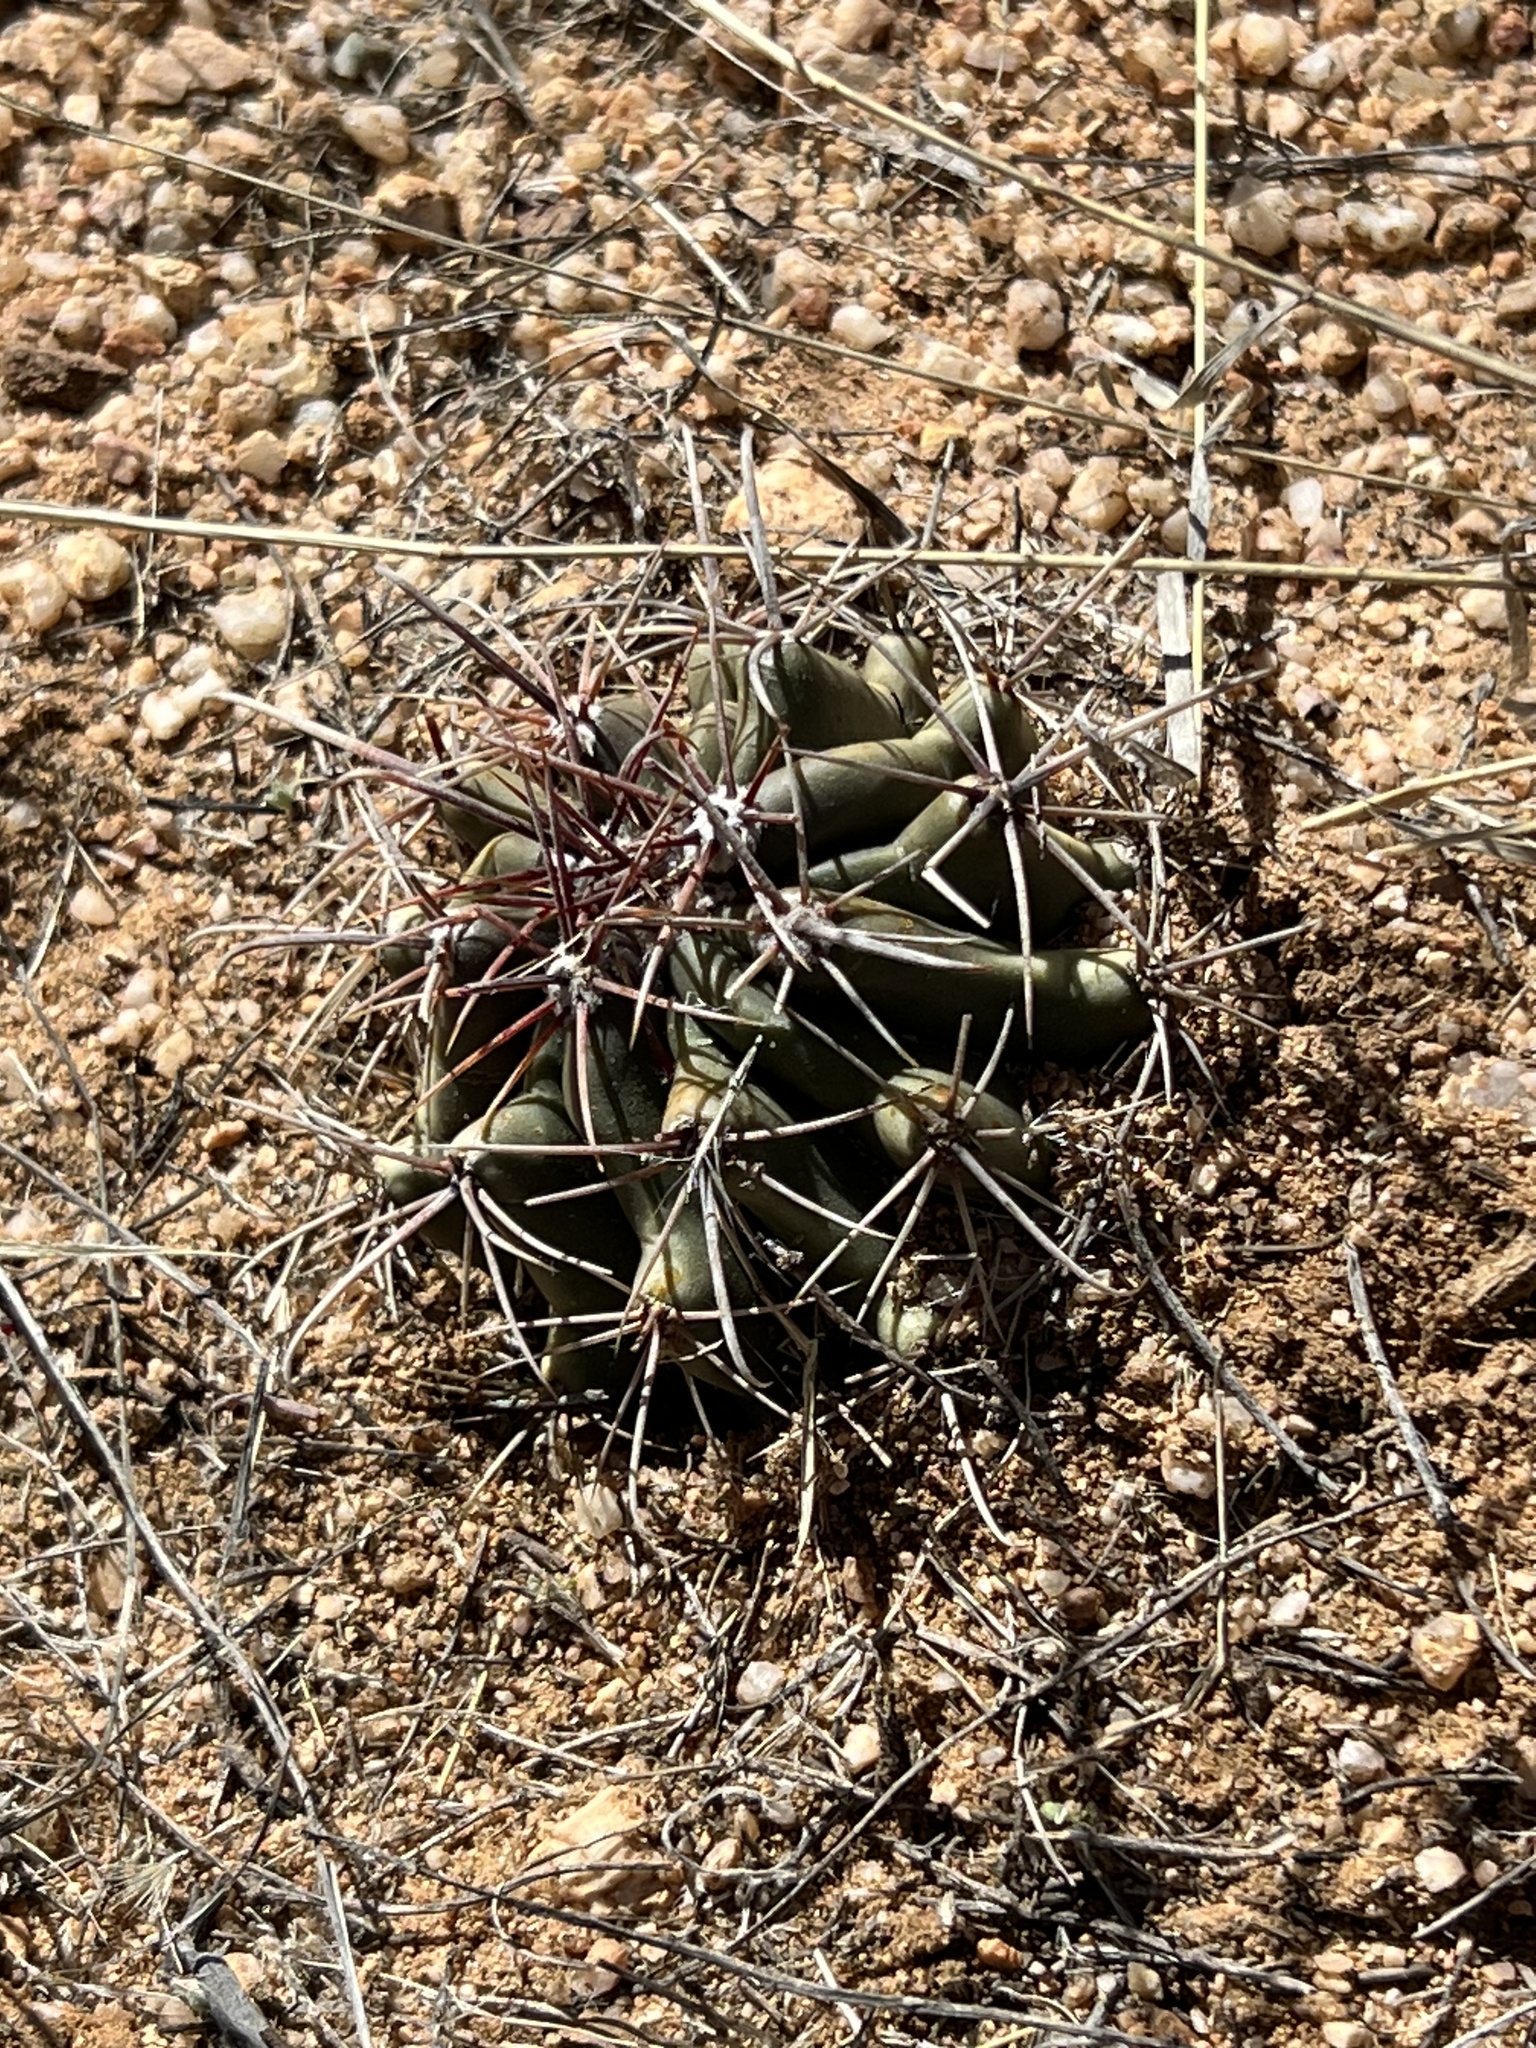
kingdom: Plantae
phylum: Tracheophyta
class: Magnoliopsida
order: Caryophyllales
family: Cactaceae
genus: Ferocactus
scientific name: Ferocactus wislizeni
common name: Candy barrel cactus
